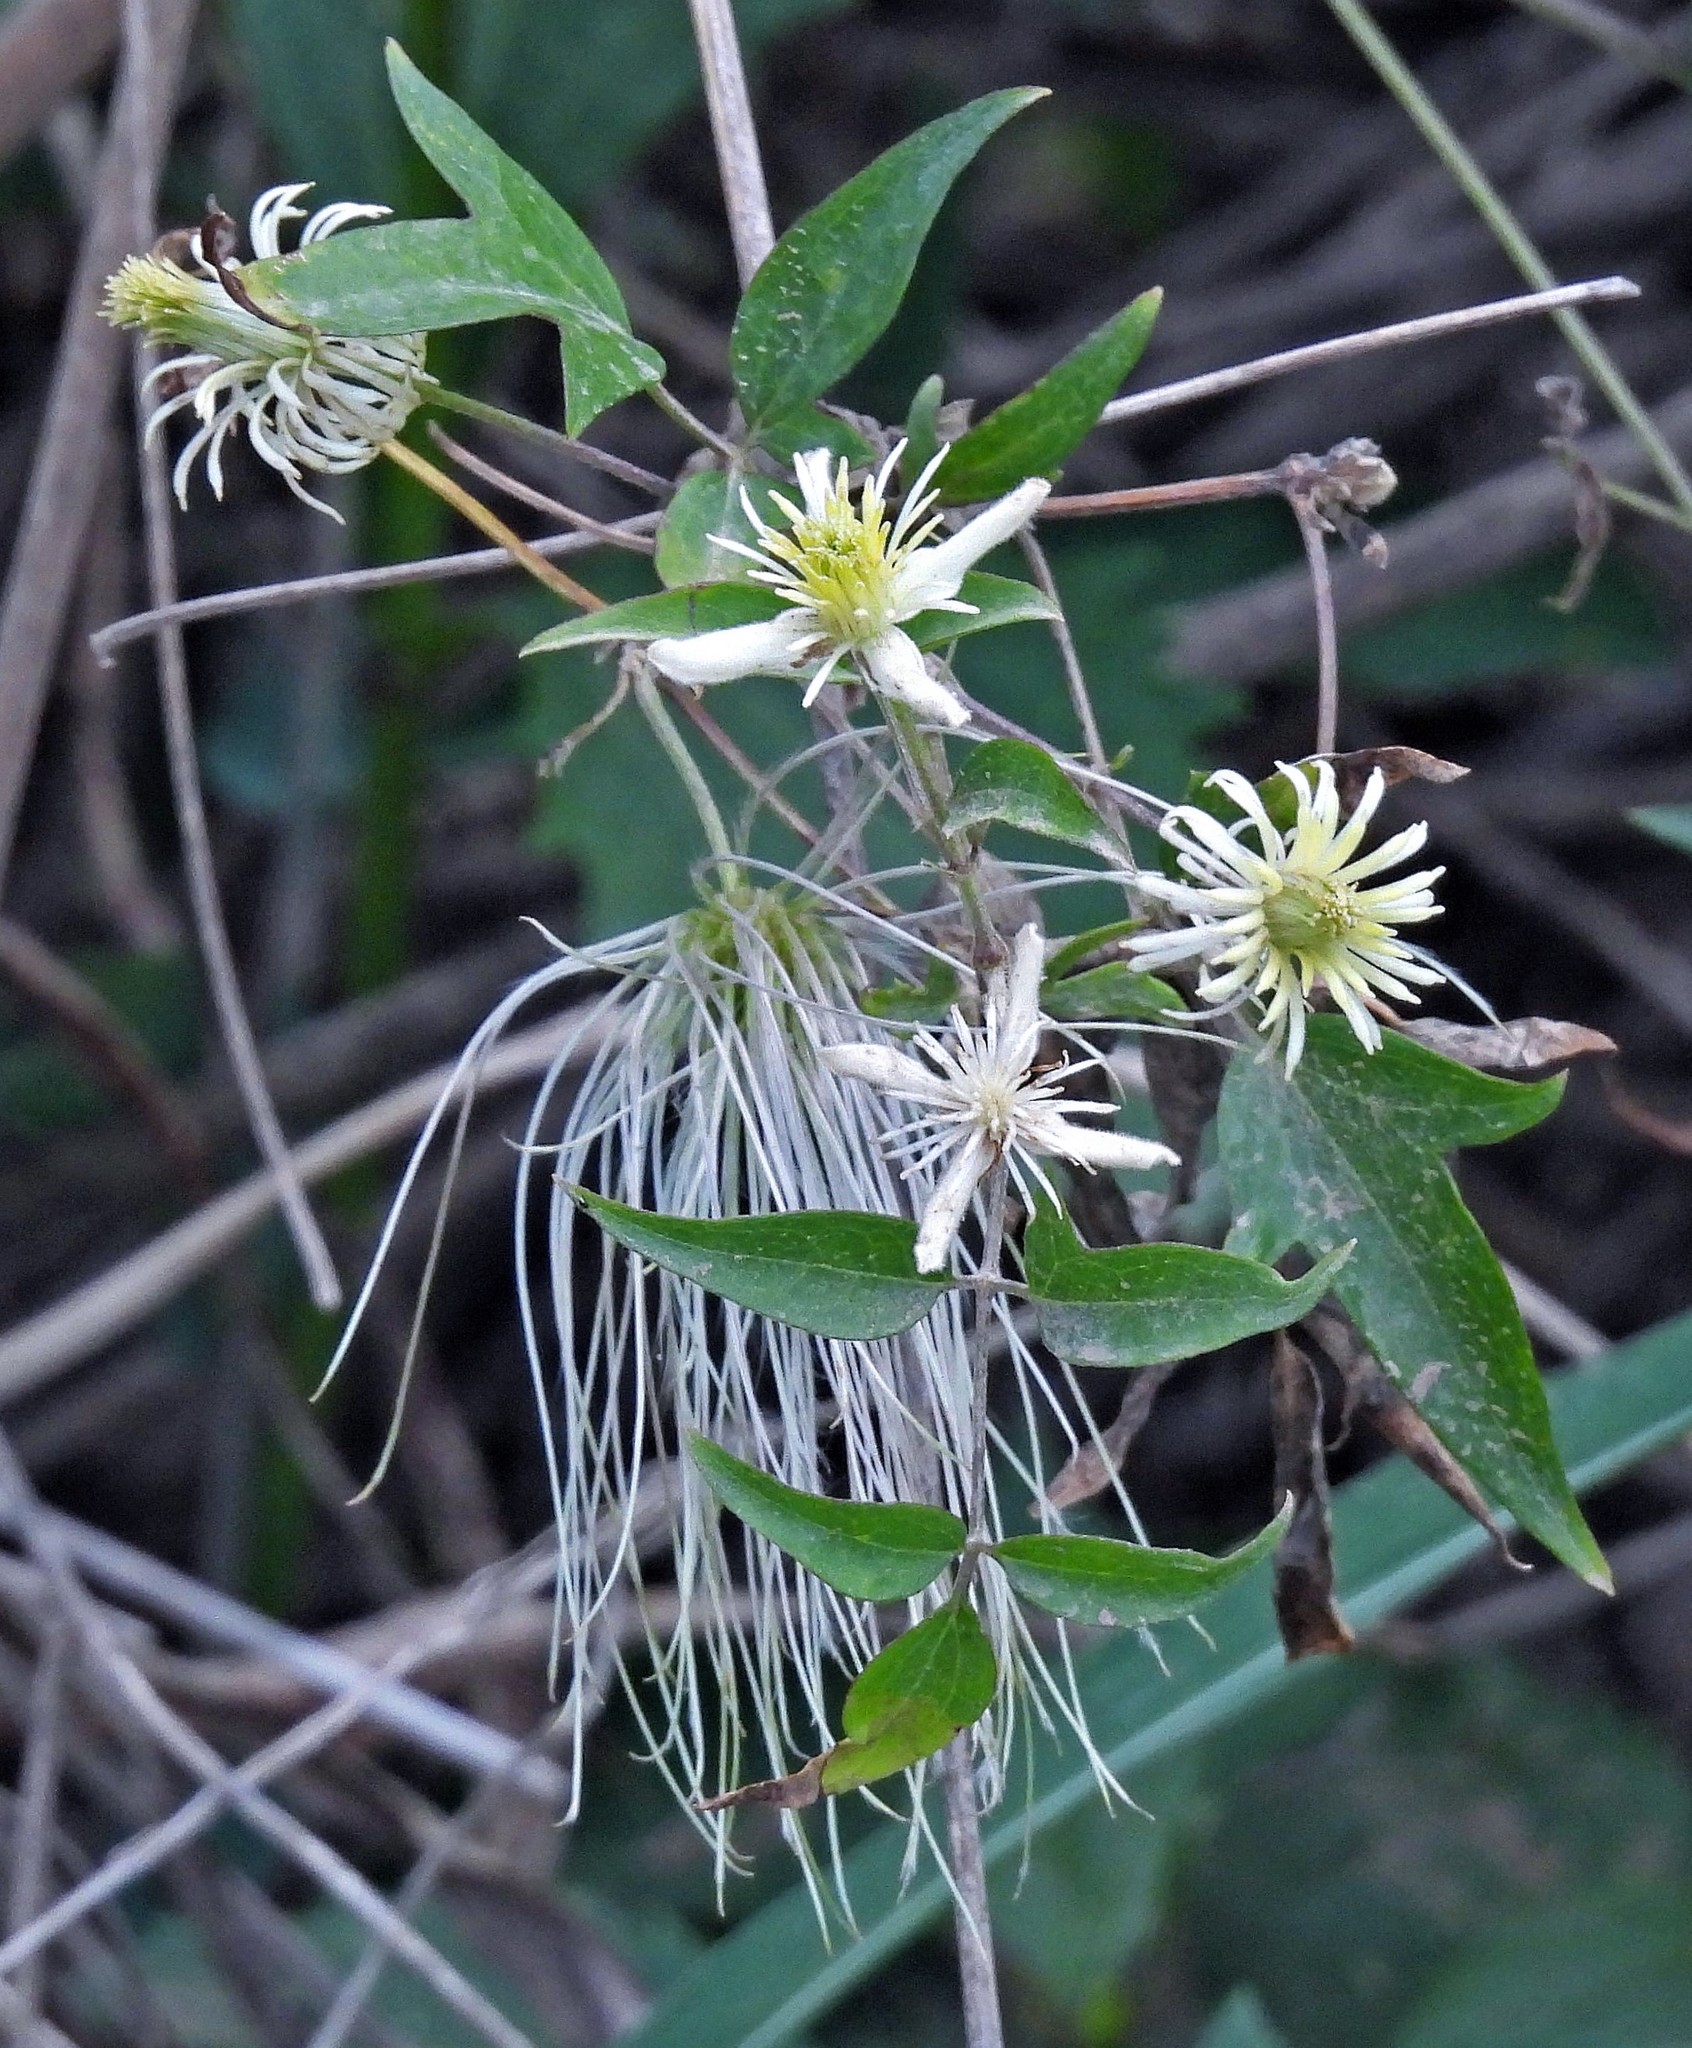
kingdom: Plantae
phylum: Tracheophyta
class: Magnoliopsida
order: Ranunculales
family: Ranunculaceae
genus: Clematis
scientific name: Clematis montevidensis
